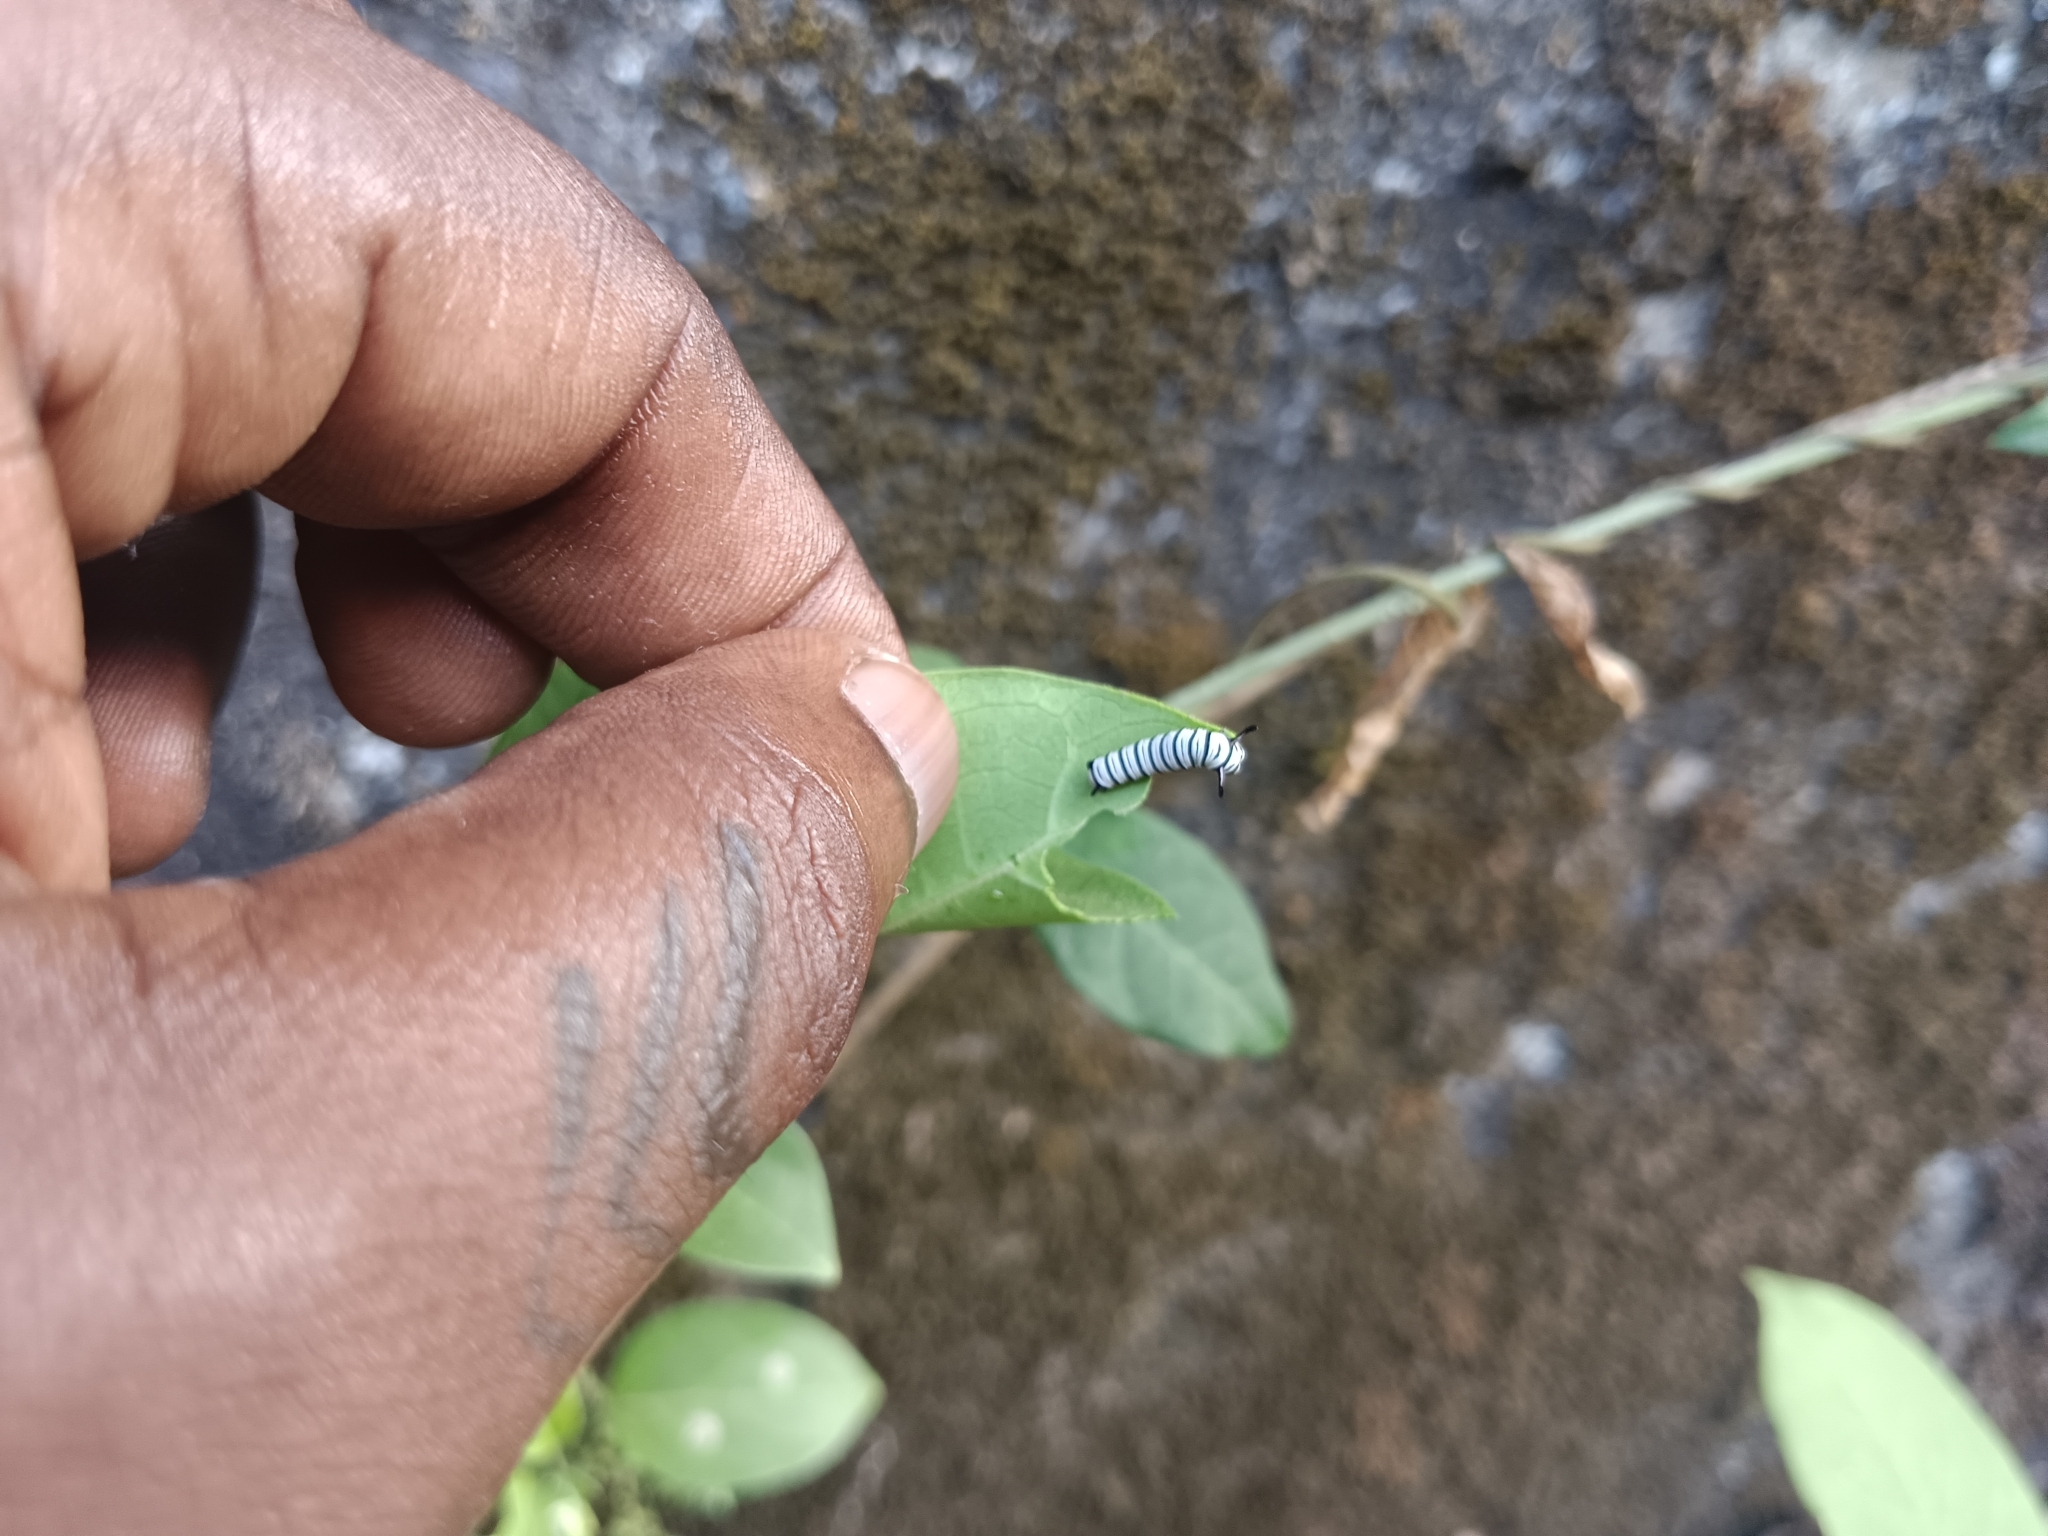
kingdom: Animalia
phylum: Arthropoda
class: Insecta
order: Lepidoptera
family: Nymphalidae
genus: Tirumala
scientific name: Tirumala limniace
